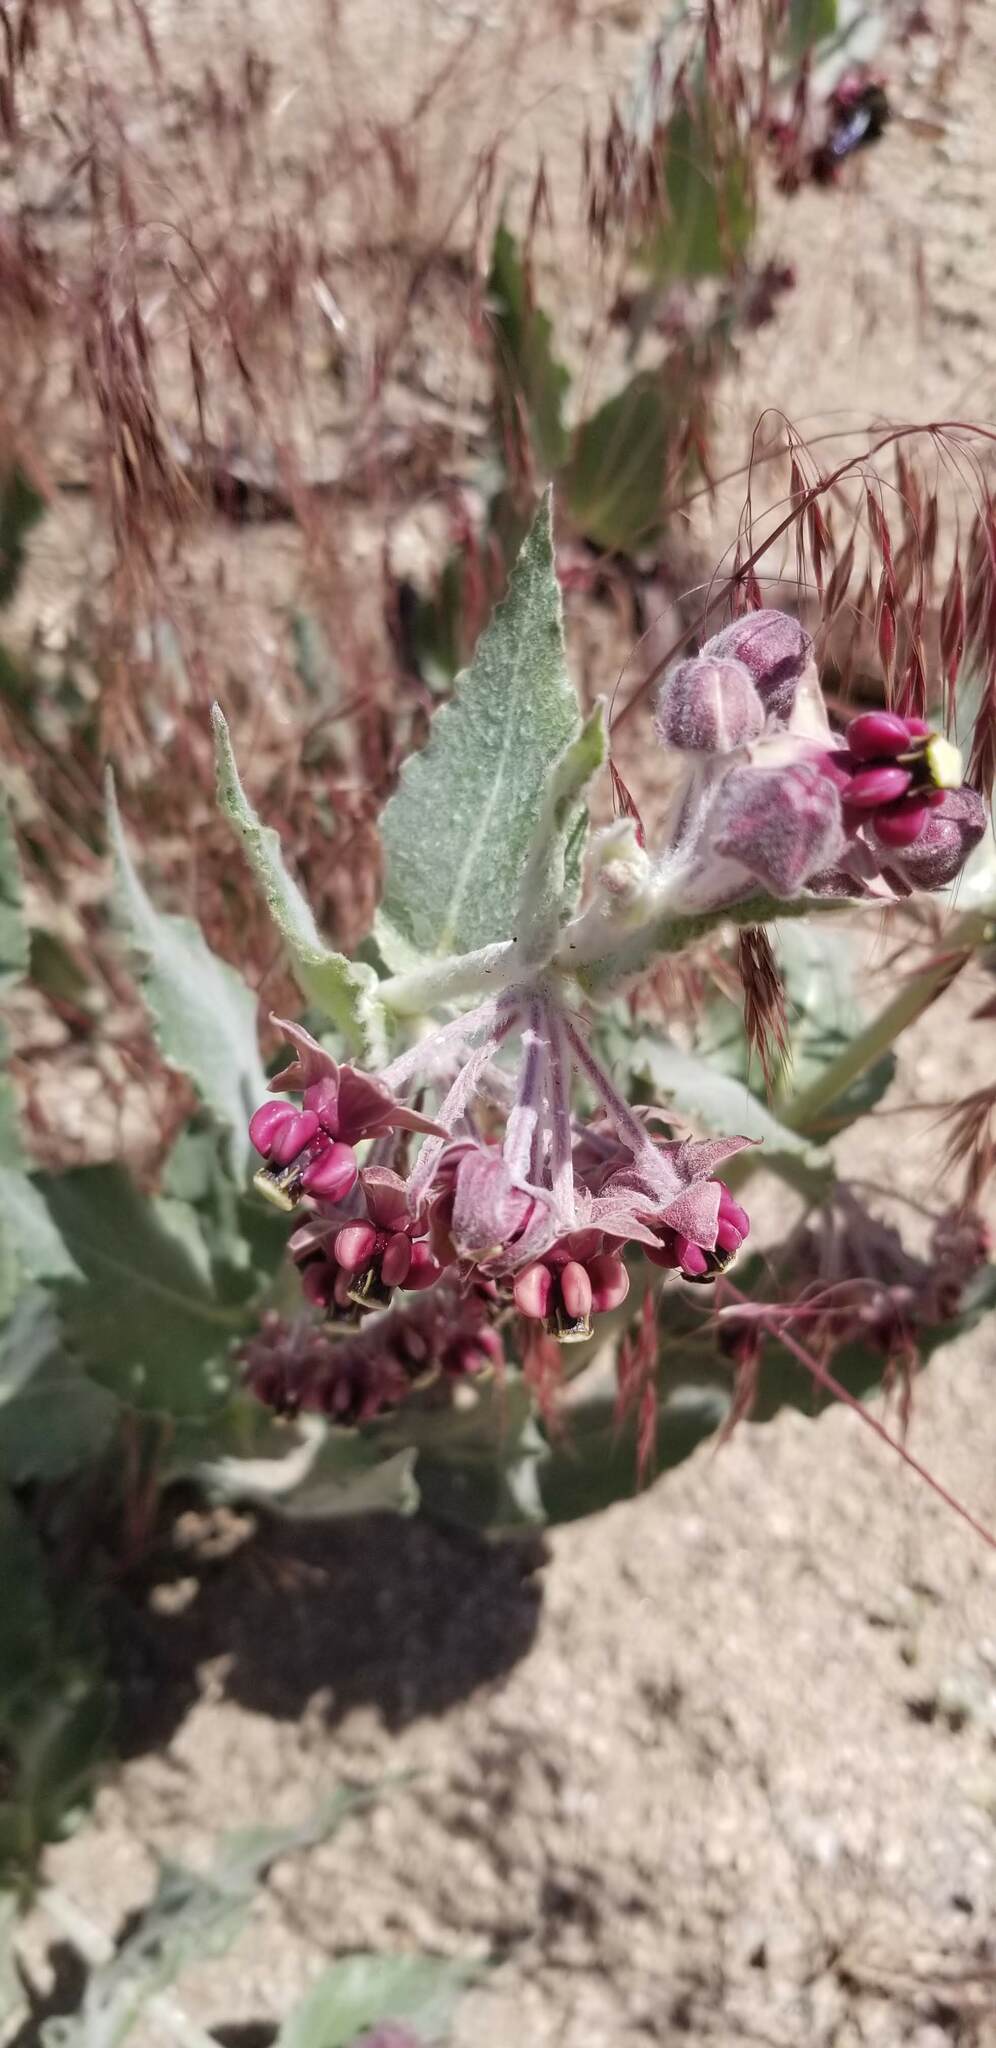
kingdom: Plantae
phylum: Tracheophyta
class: Magnoliopsida
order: Gentianales
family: Apocynaceae
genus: Asclepias
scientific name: Asclepias californica
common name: California milkweed
